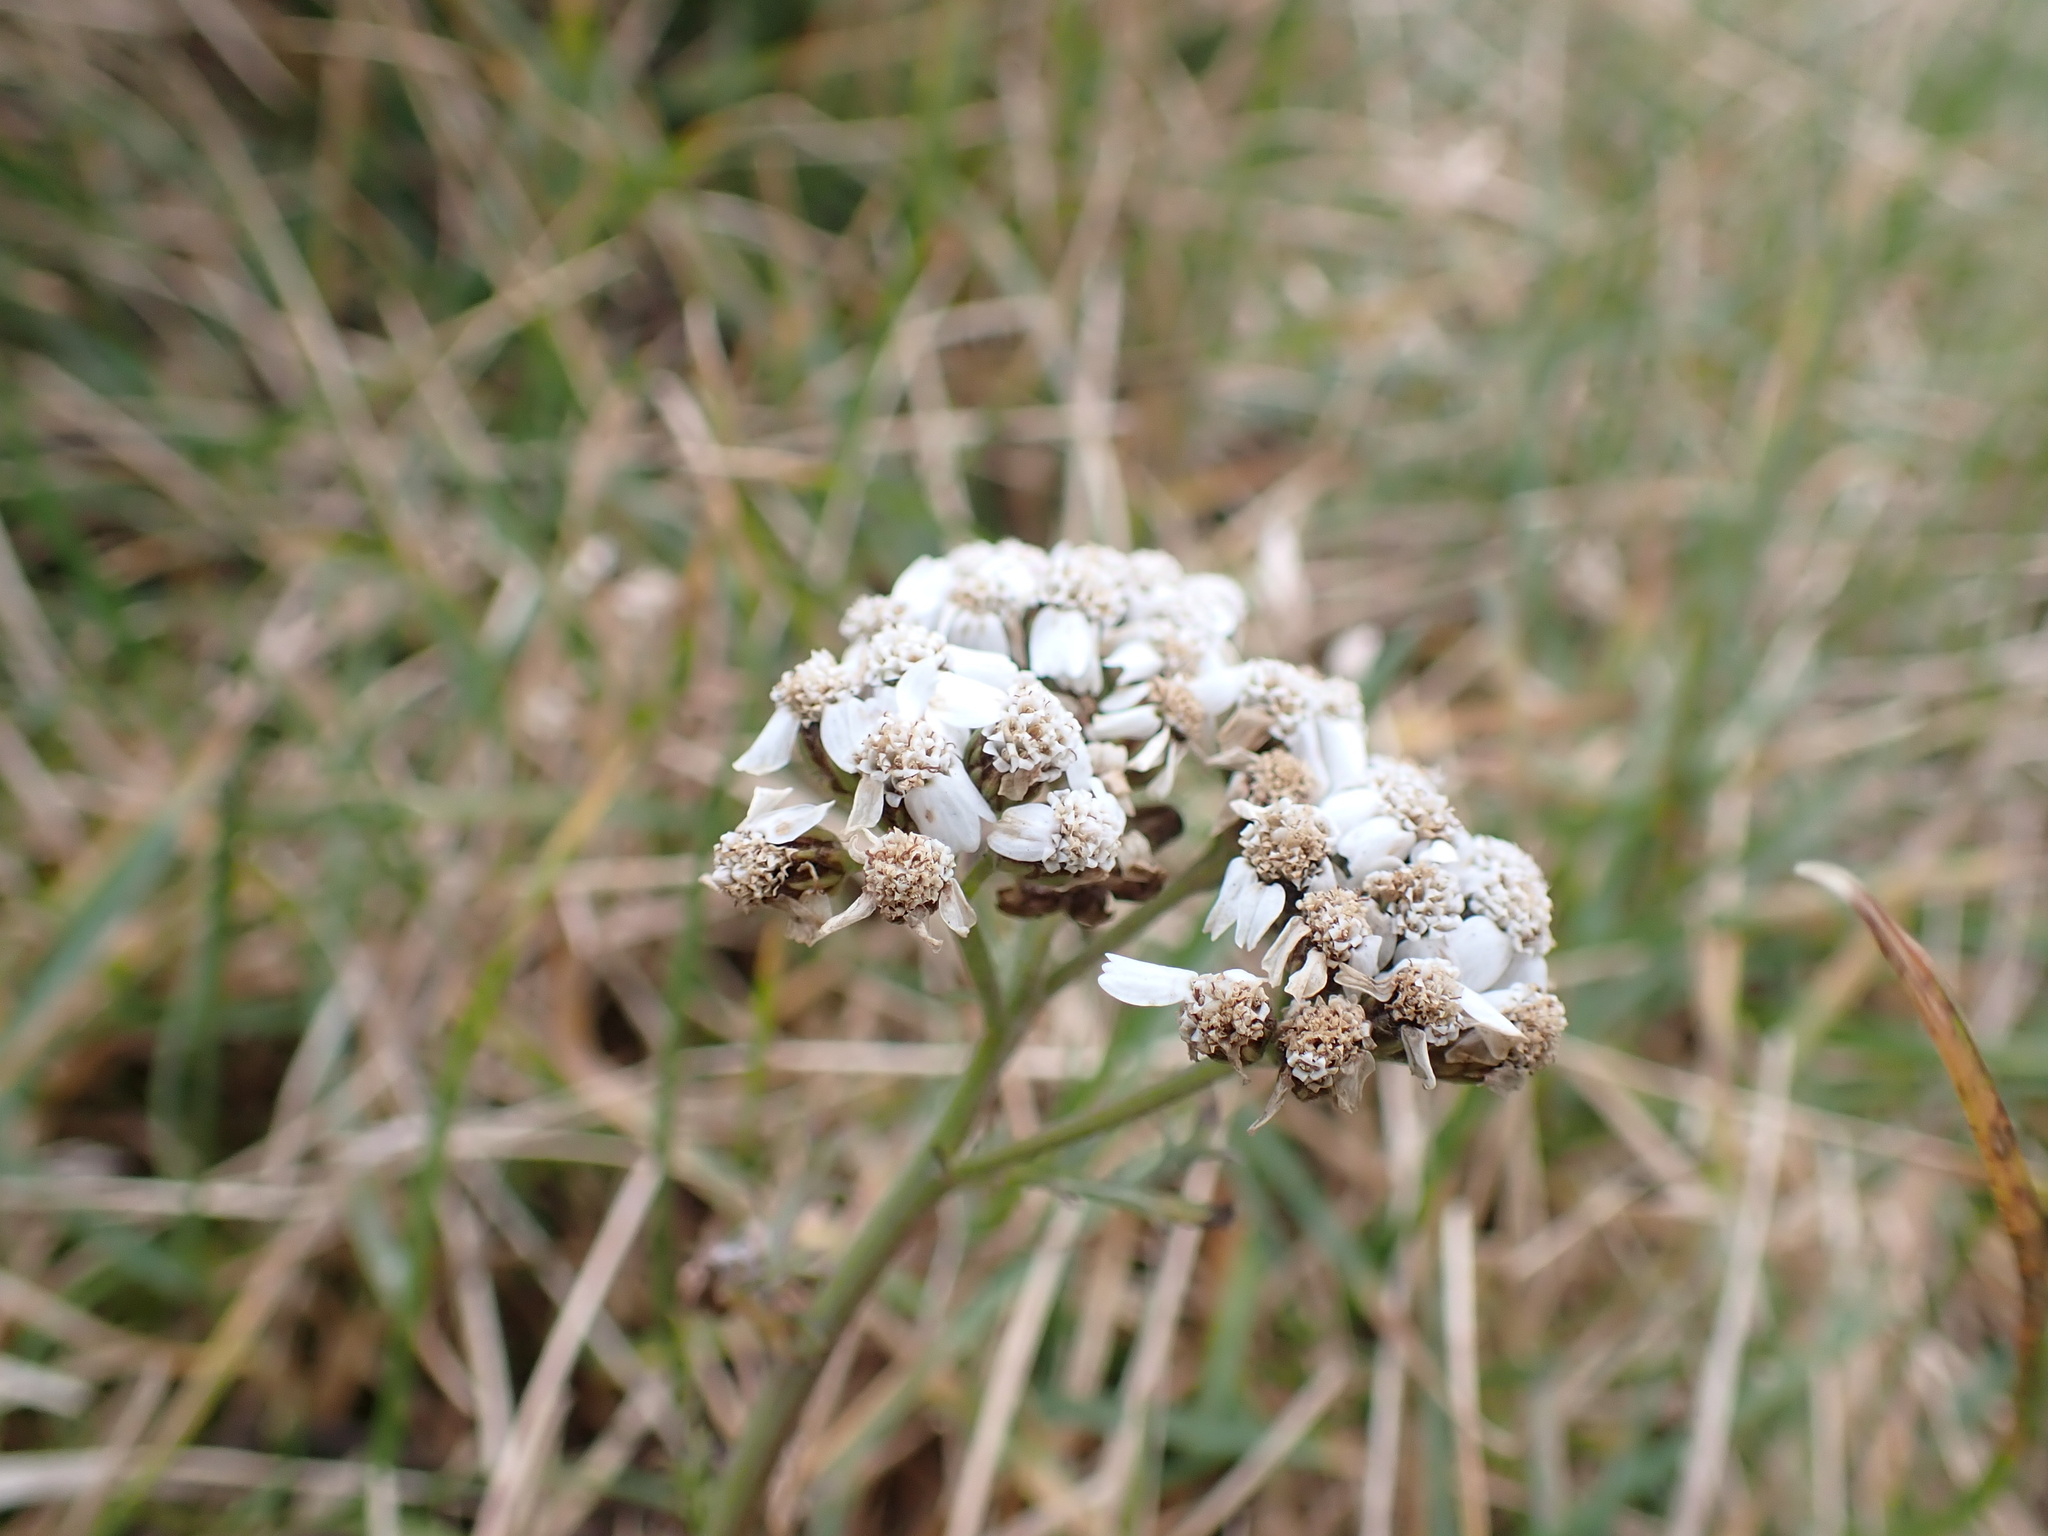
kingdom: Plantae
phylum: Tracheophyta
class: Magnoliopsida
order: Asterales
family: Asteraceae
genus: Achillea
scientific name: Achillea millefolium
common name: Yarrow
